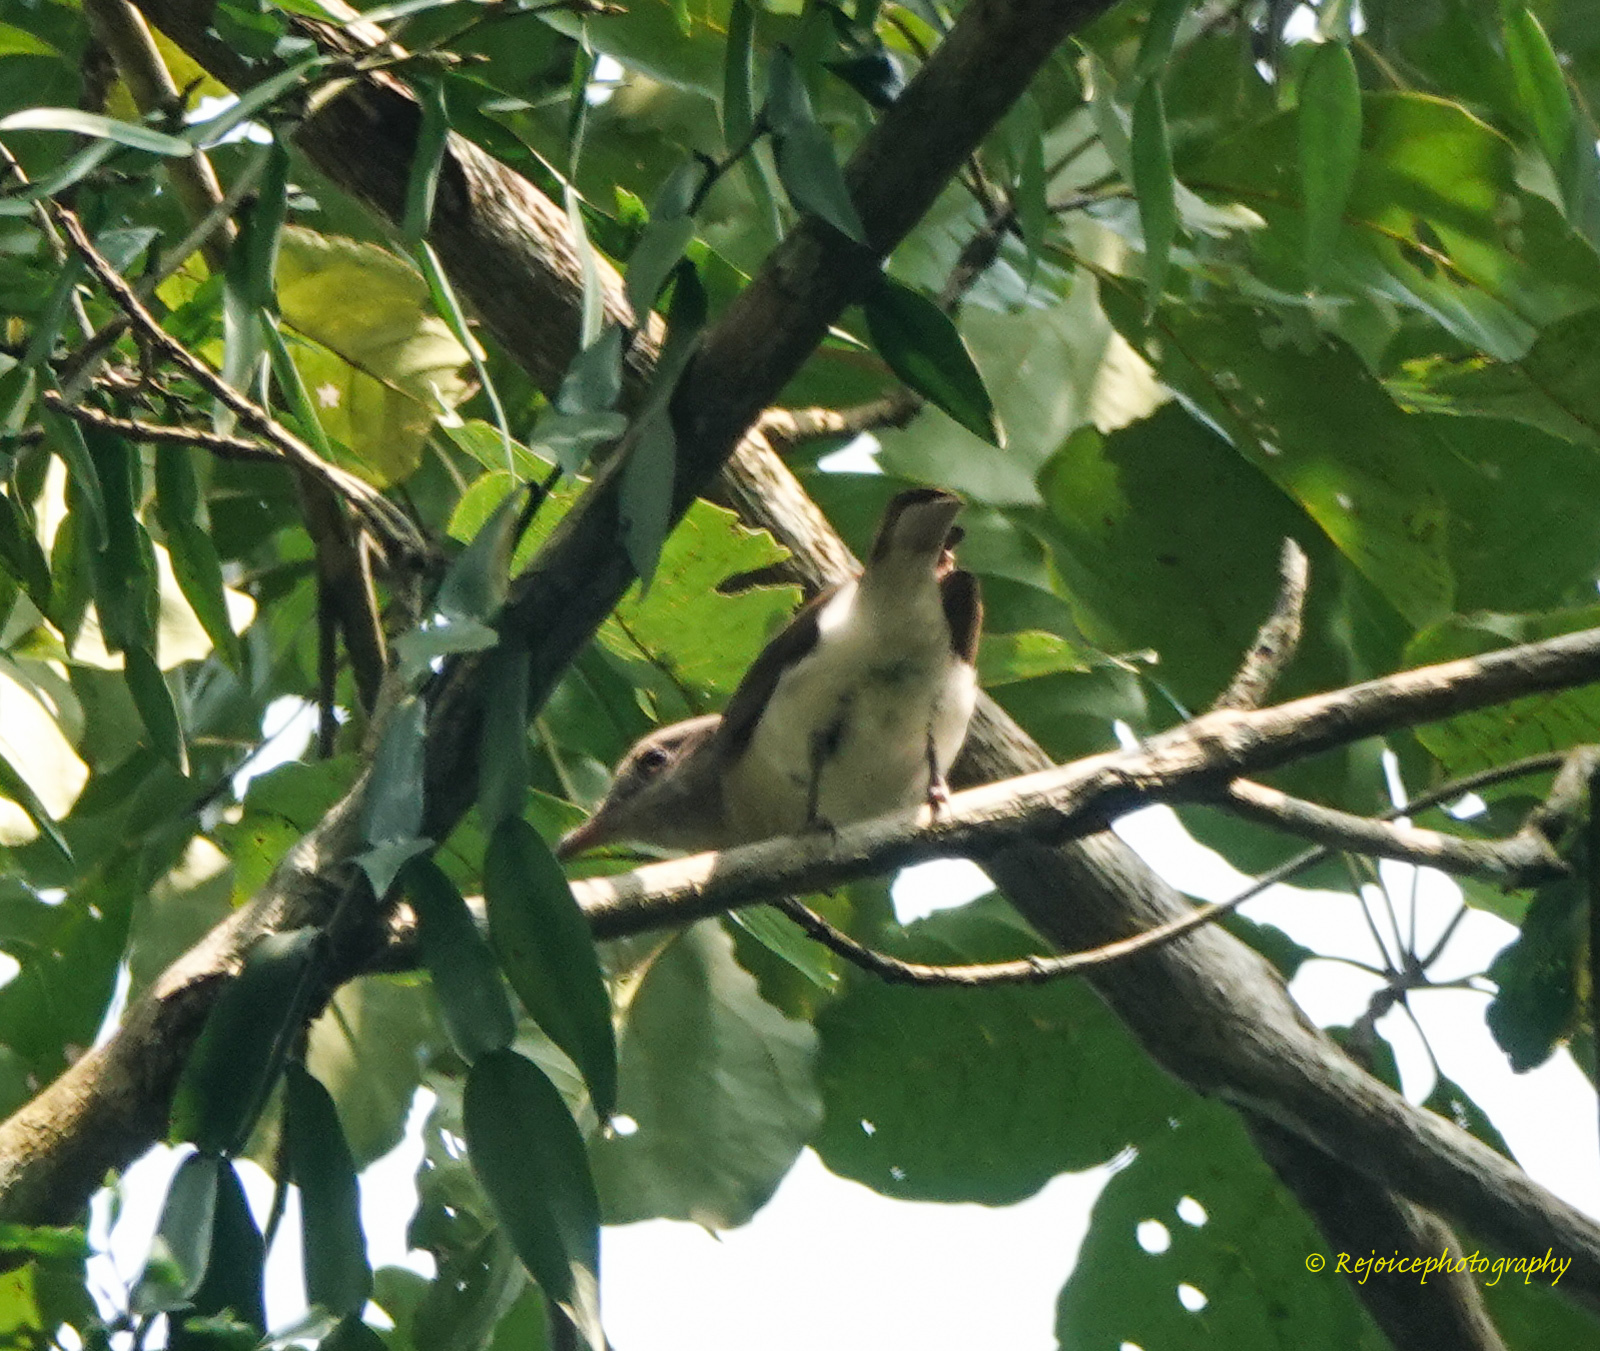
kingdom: Animalia
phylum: Chordata
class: Aves
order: Passeriformes
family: Campephagidae
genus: Coracina
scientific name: Coracina macei
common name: Large cuckooshrike
